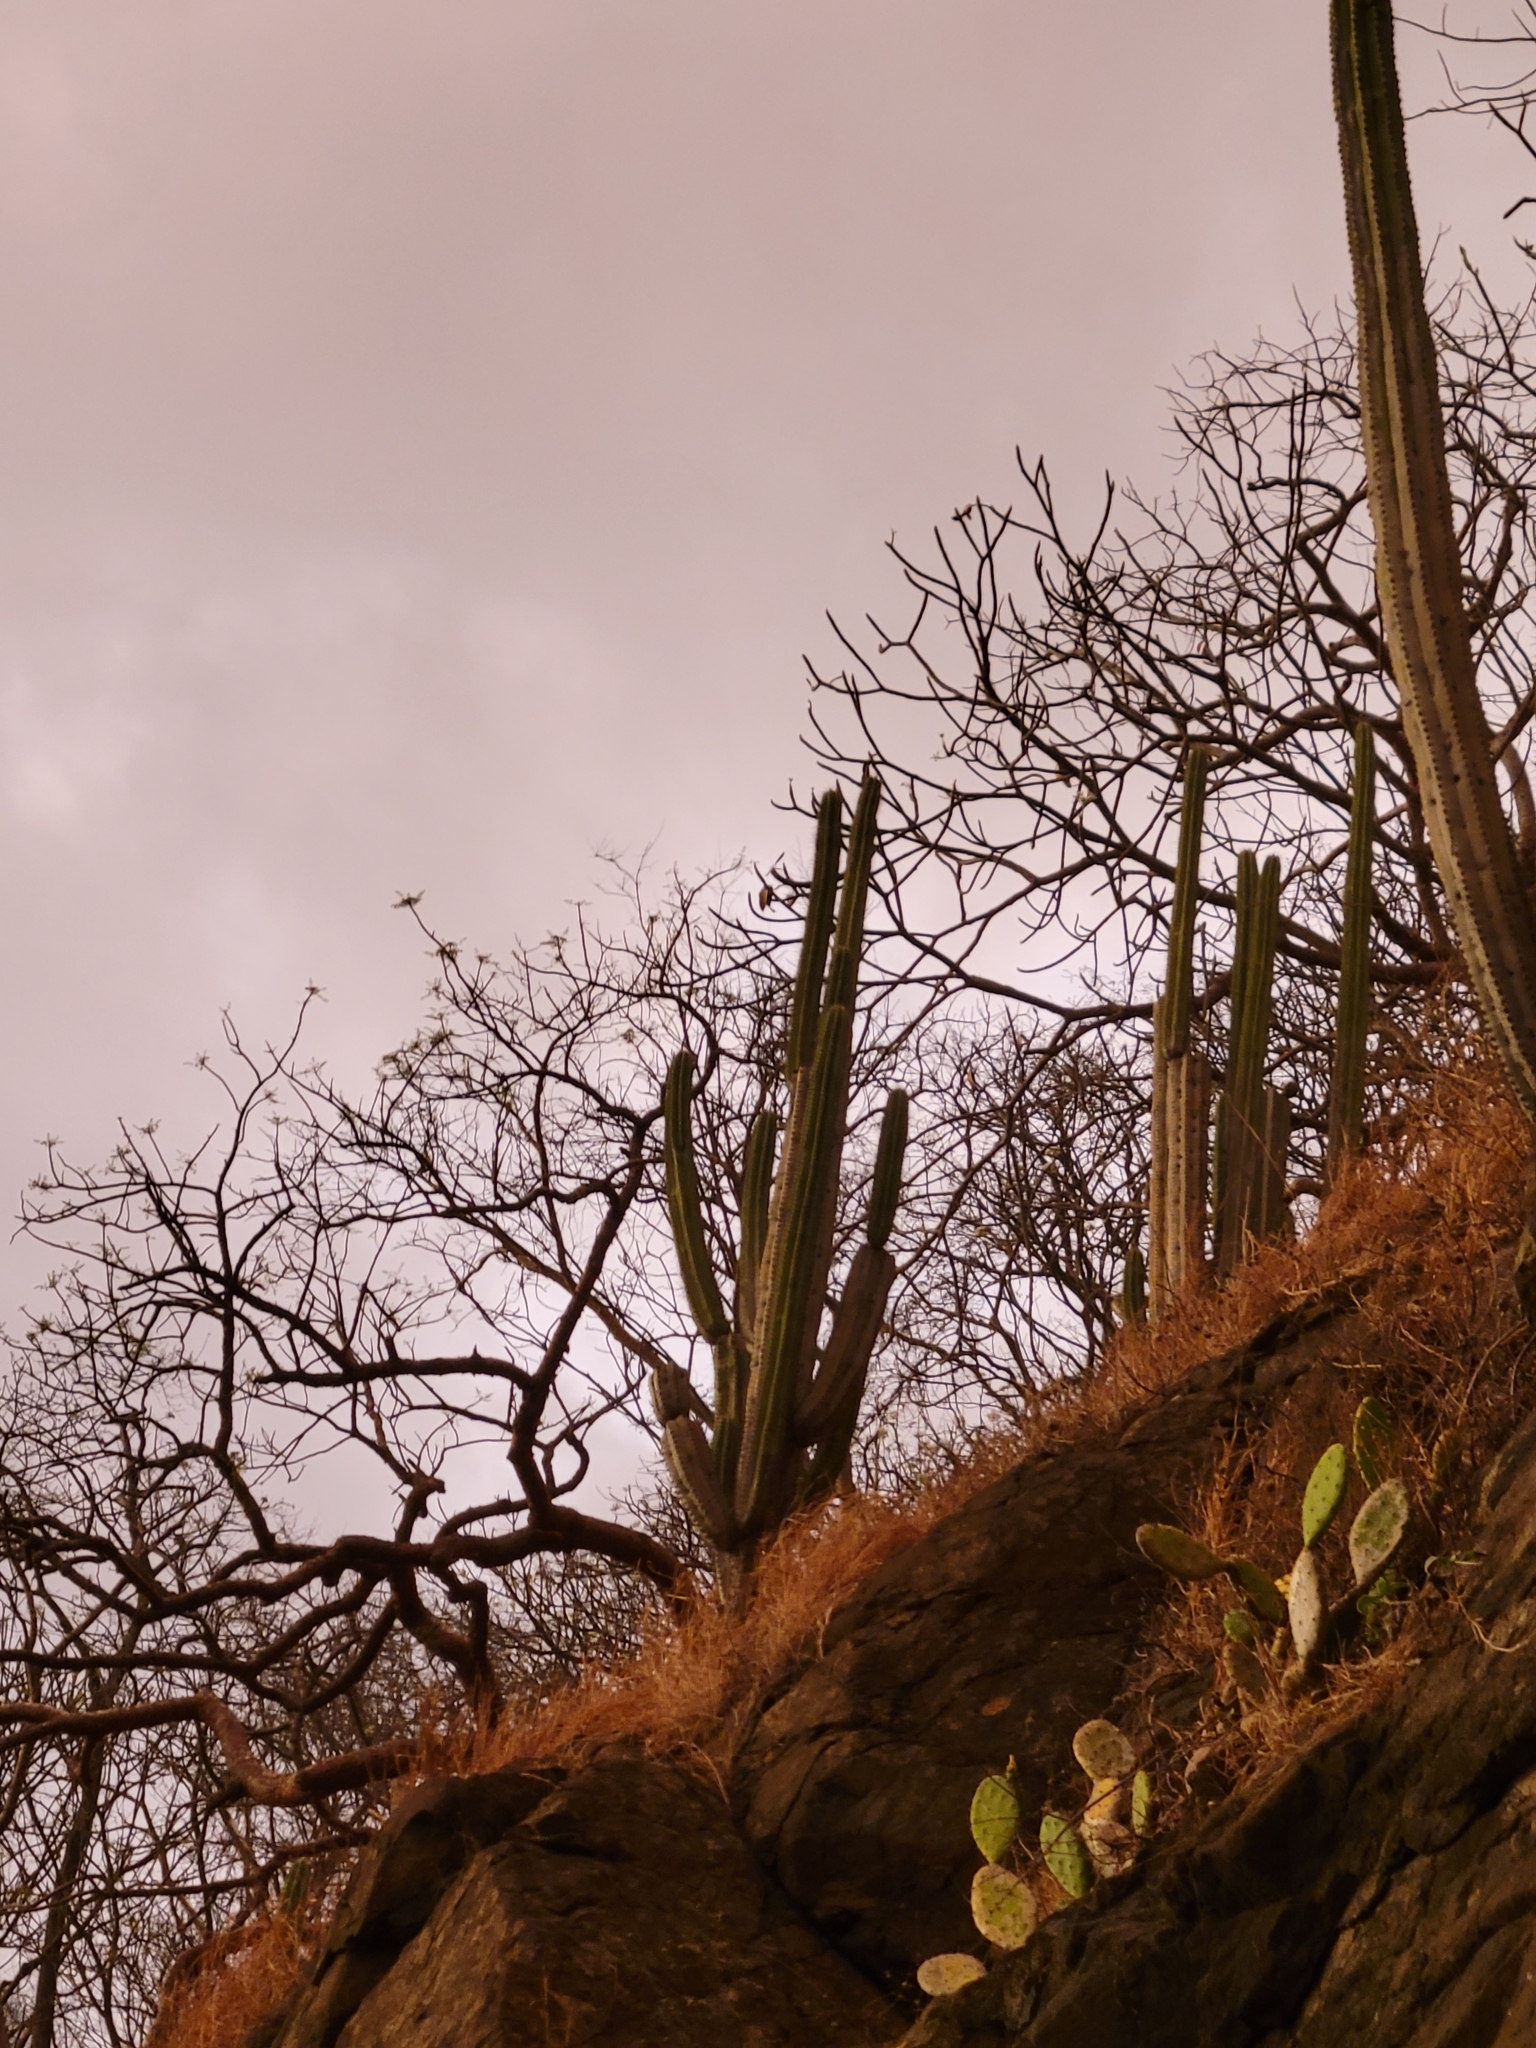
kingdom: Plantae
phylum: Tracheophyta
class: Magnoliopsida
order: Caryophyllales
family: Cactaceae
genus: Stenocereus
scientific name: Stenocereus aragonii
